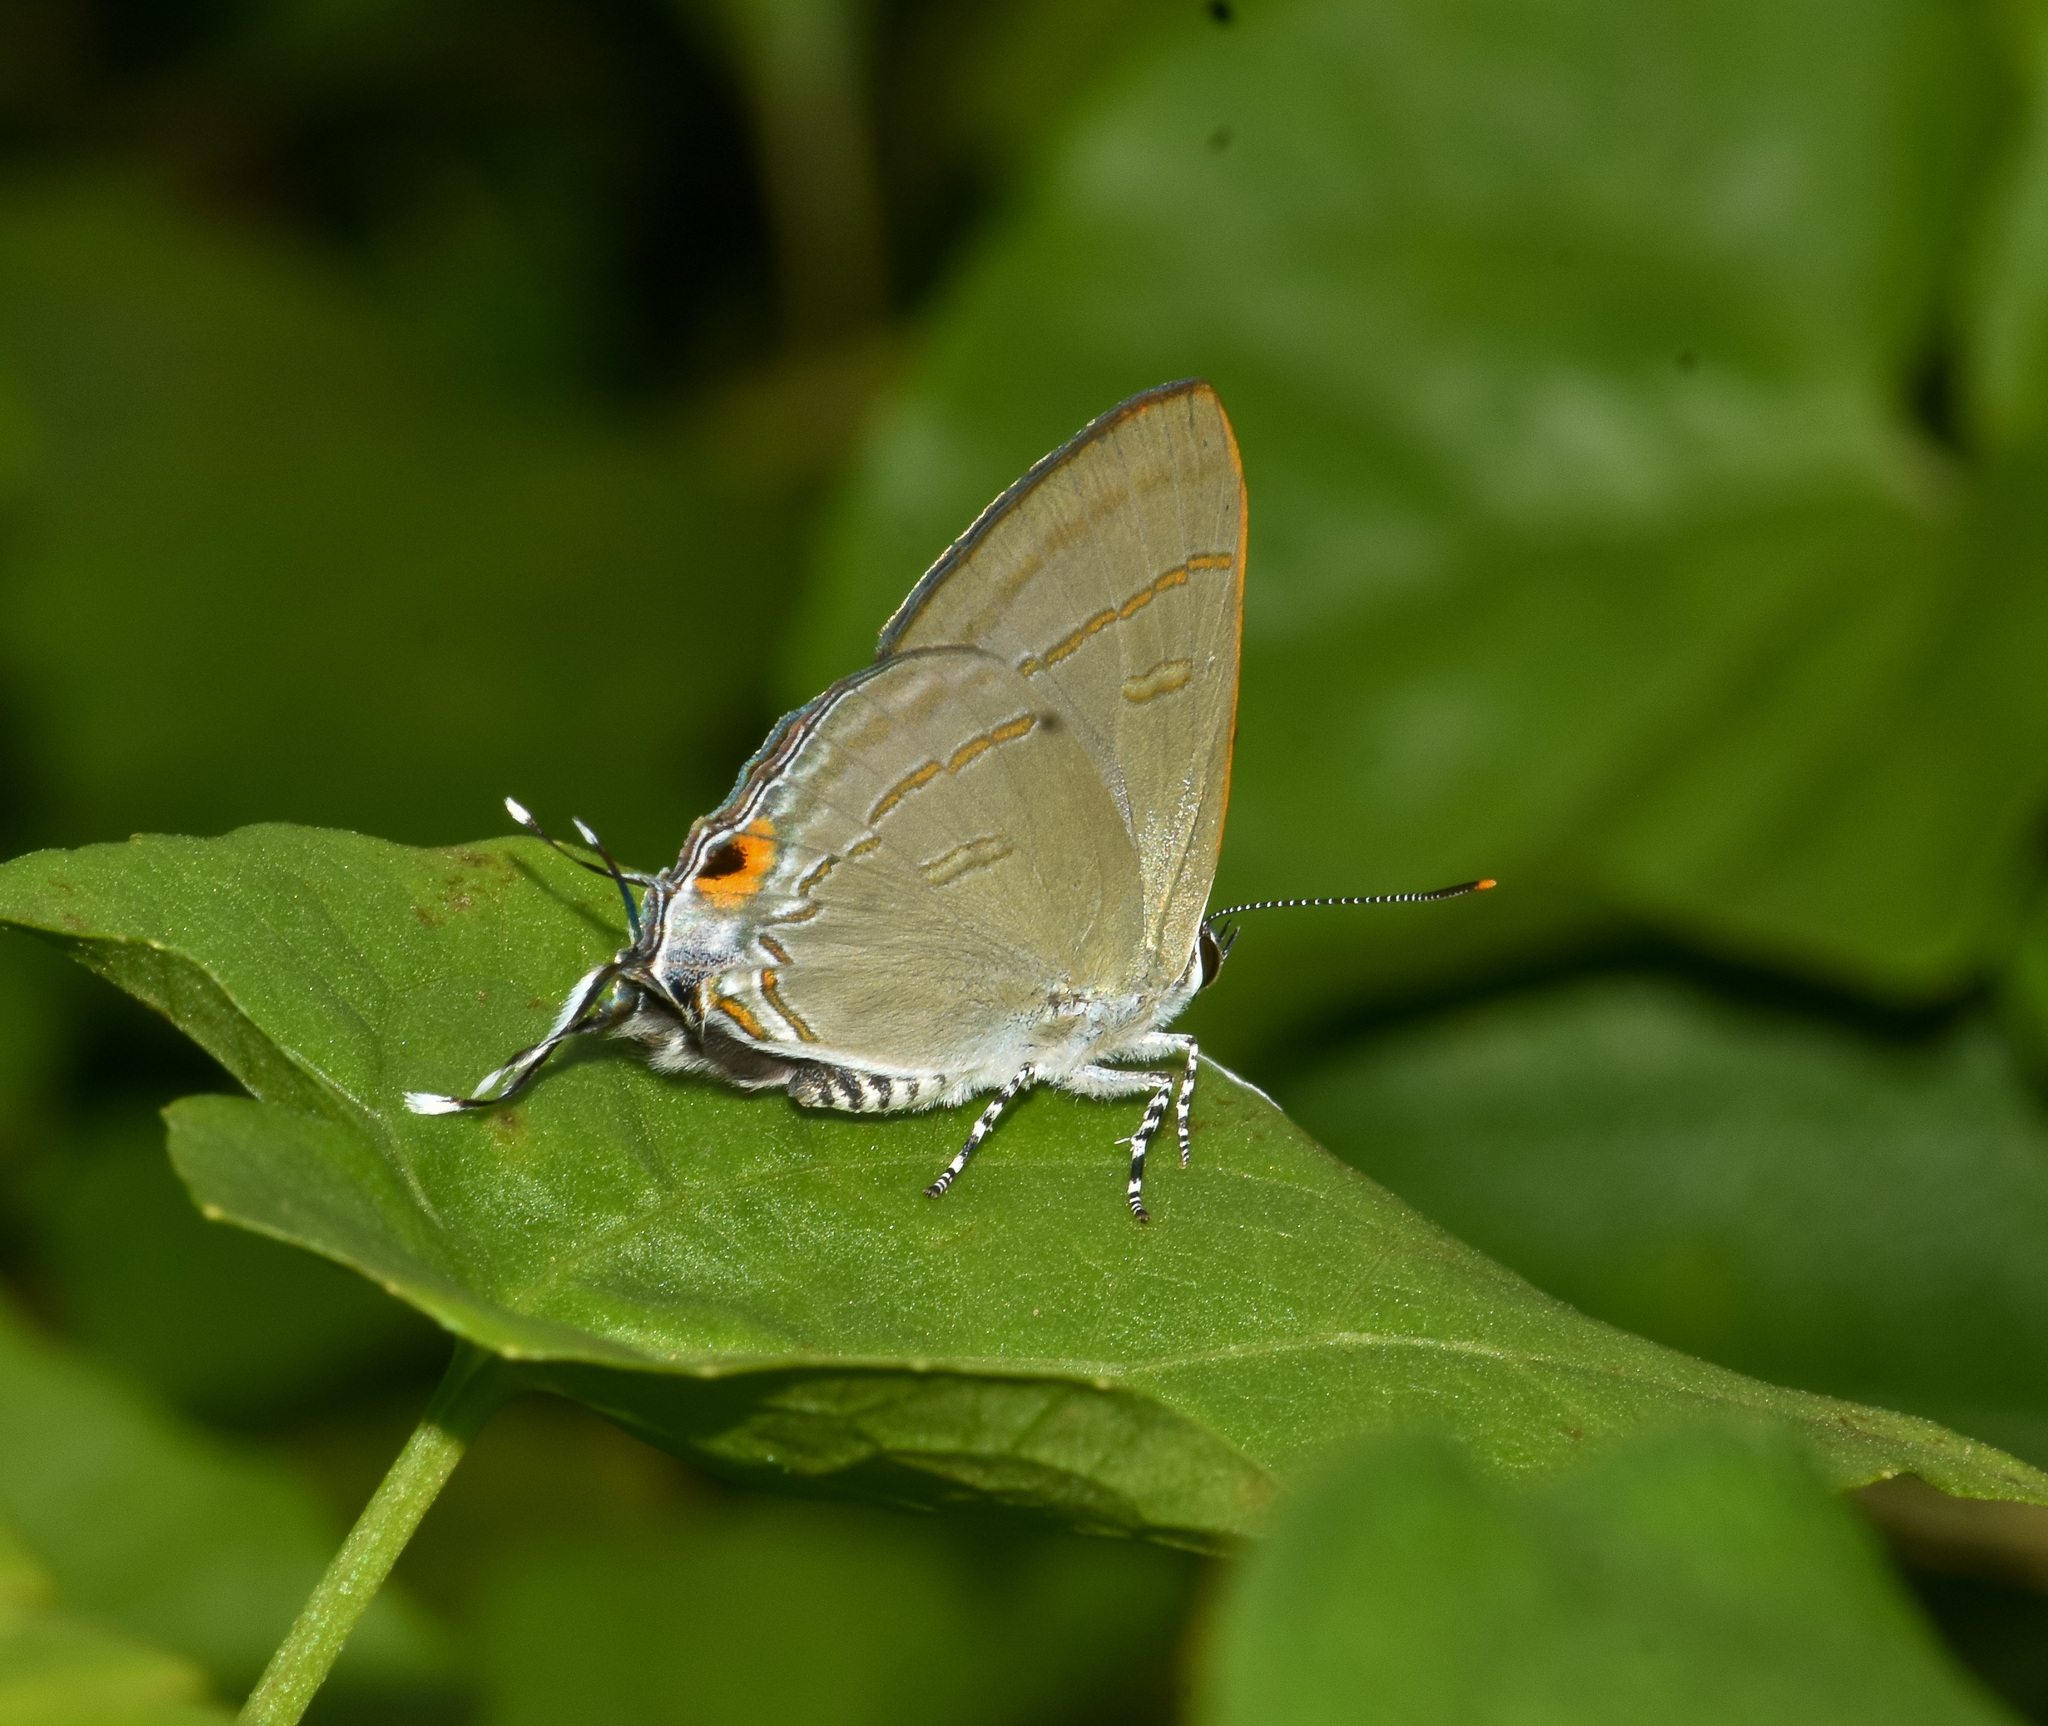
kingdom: Animalia
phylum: Arthropoda
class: Insecta
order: Lepidoptera
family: Lycaenidae
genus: Hypolycaena
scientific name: Hypolycaena erylus
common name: Common tit
